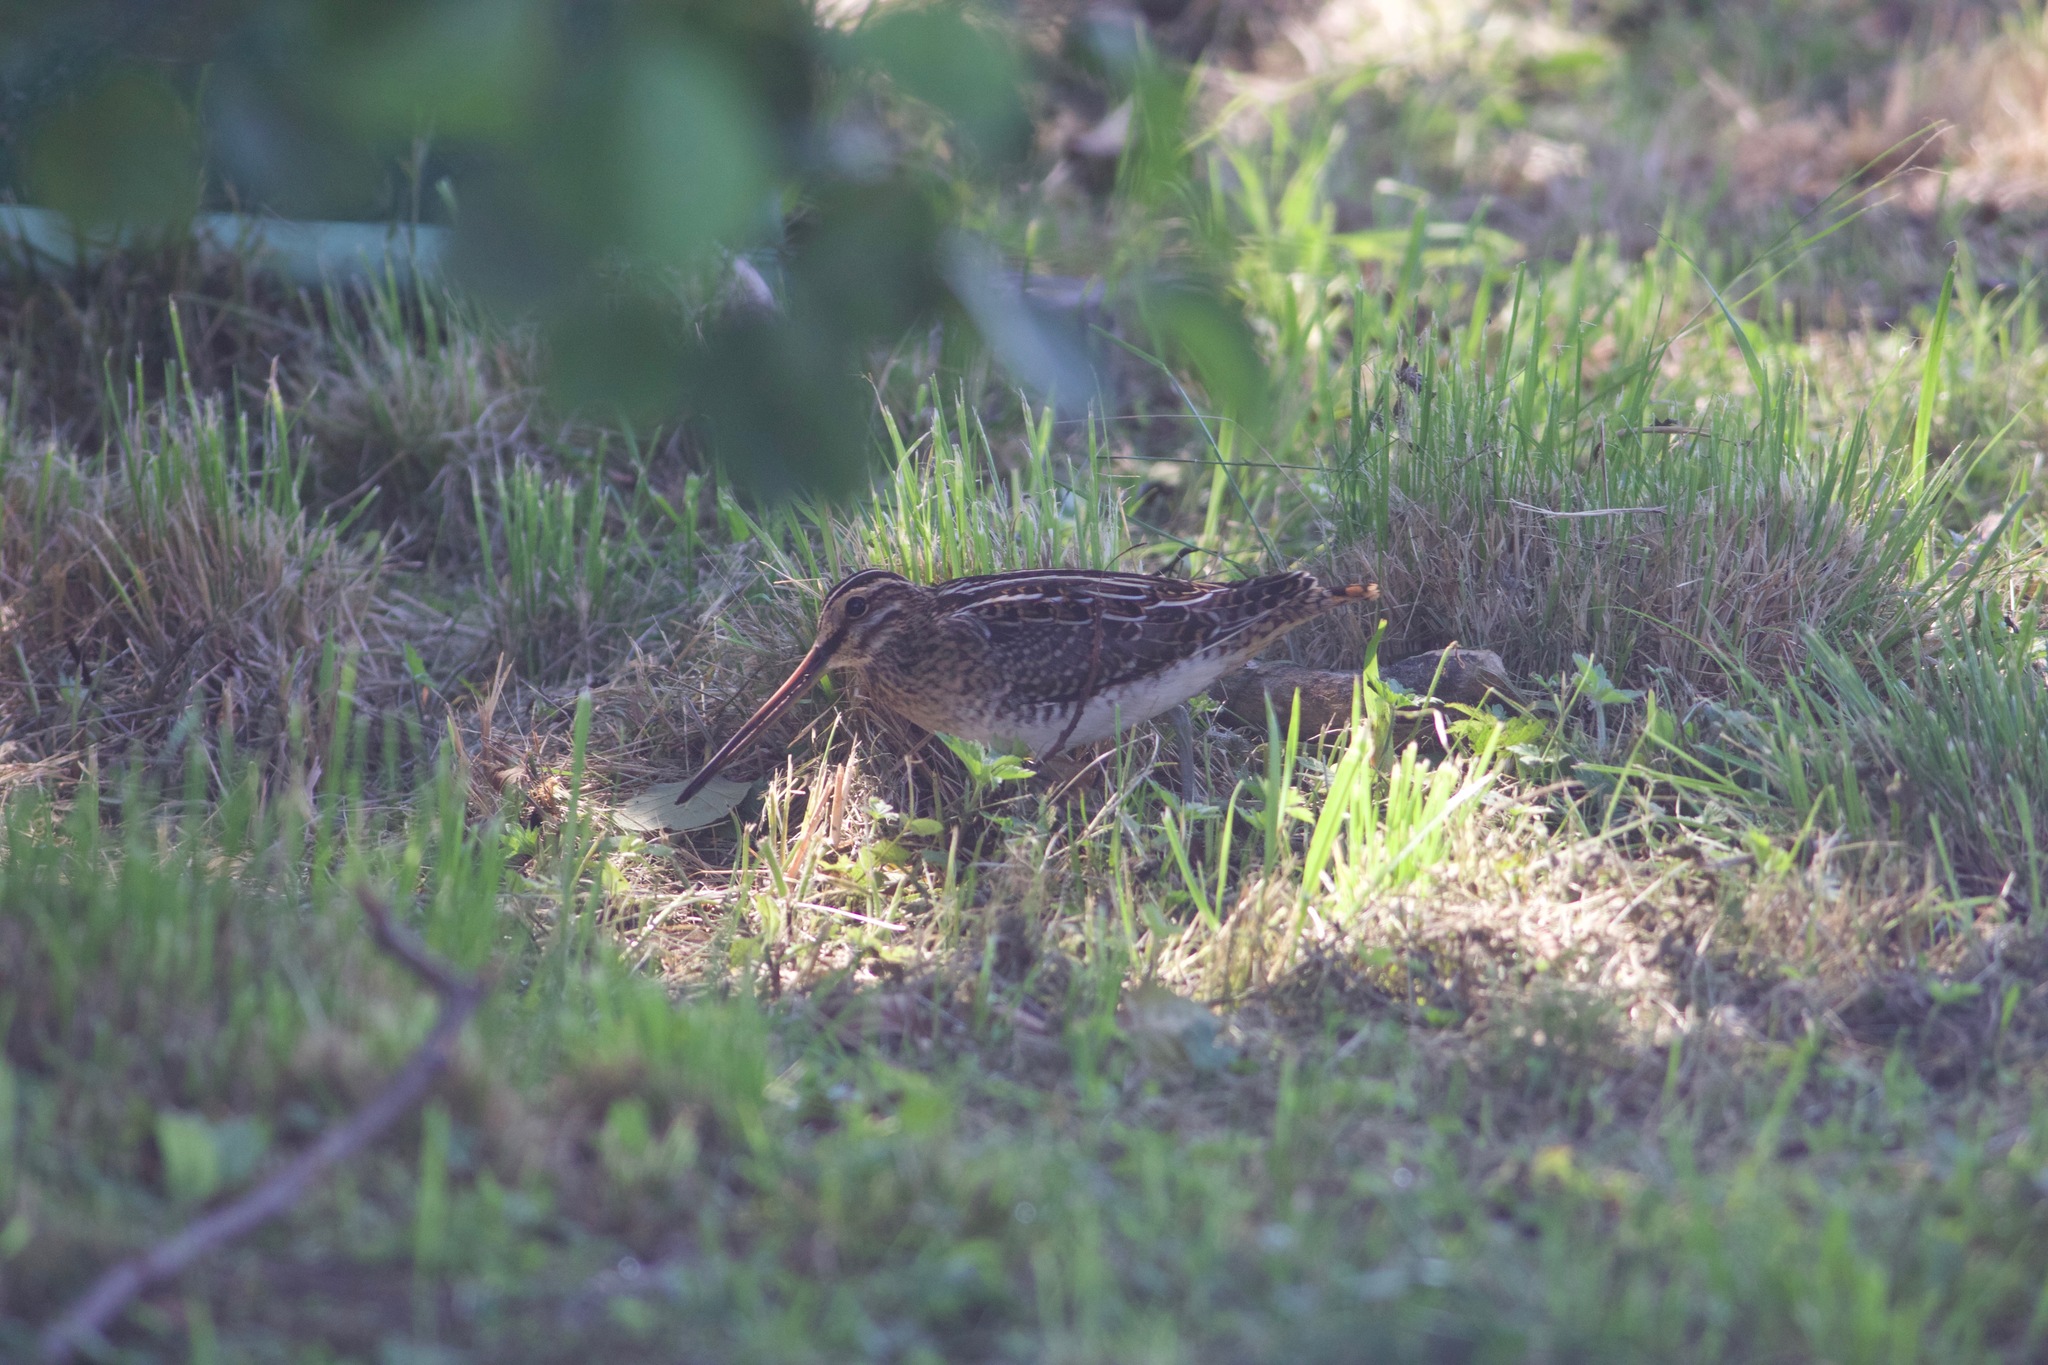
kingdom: Animalia
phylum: Chordata
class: Aves
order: Charadriiformes
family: Scolopacidae
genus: Gallinago
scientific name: Gallinago gallinago
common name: Common snipe
